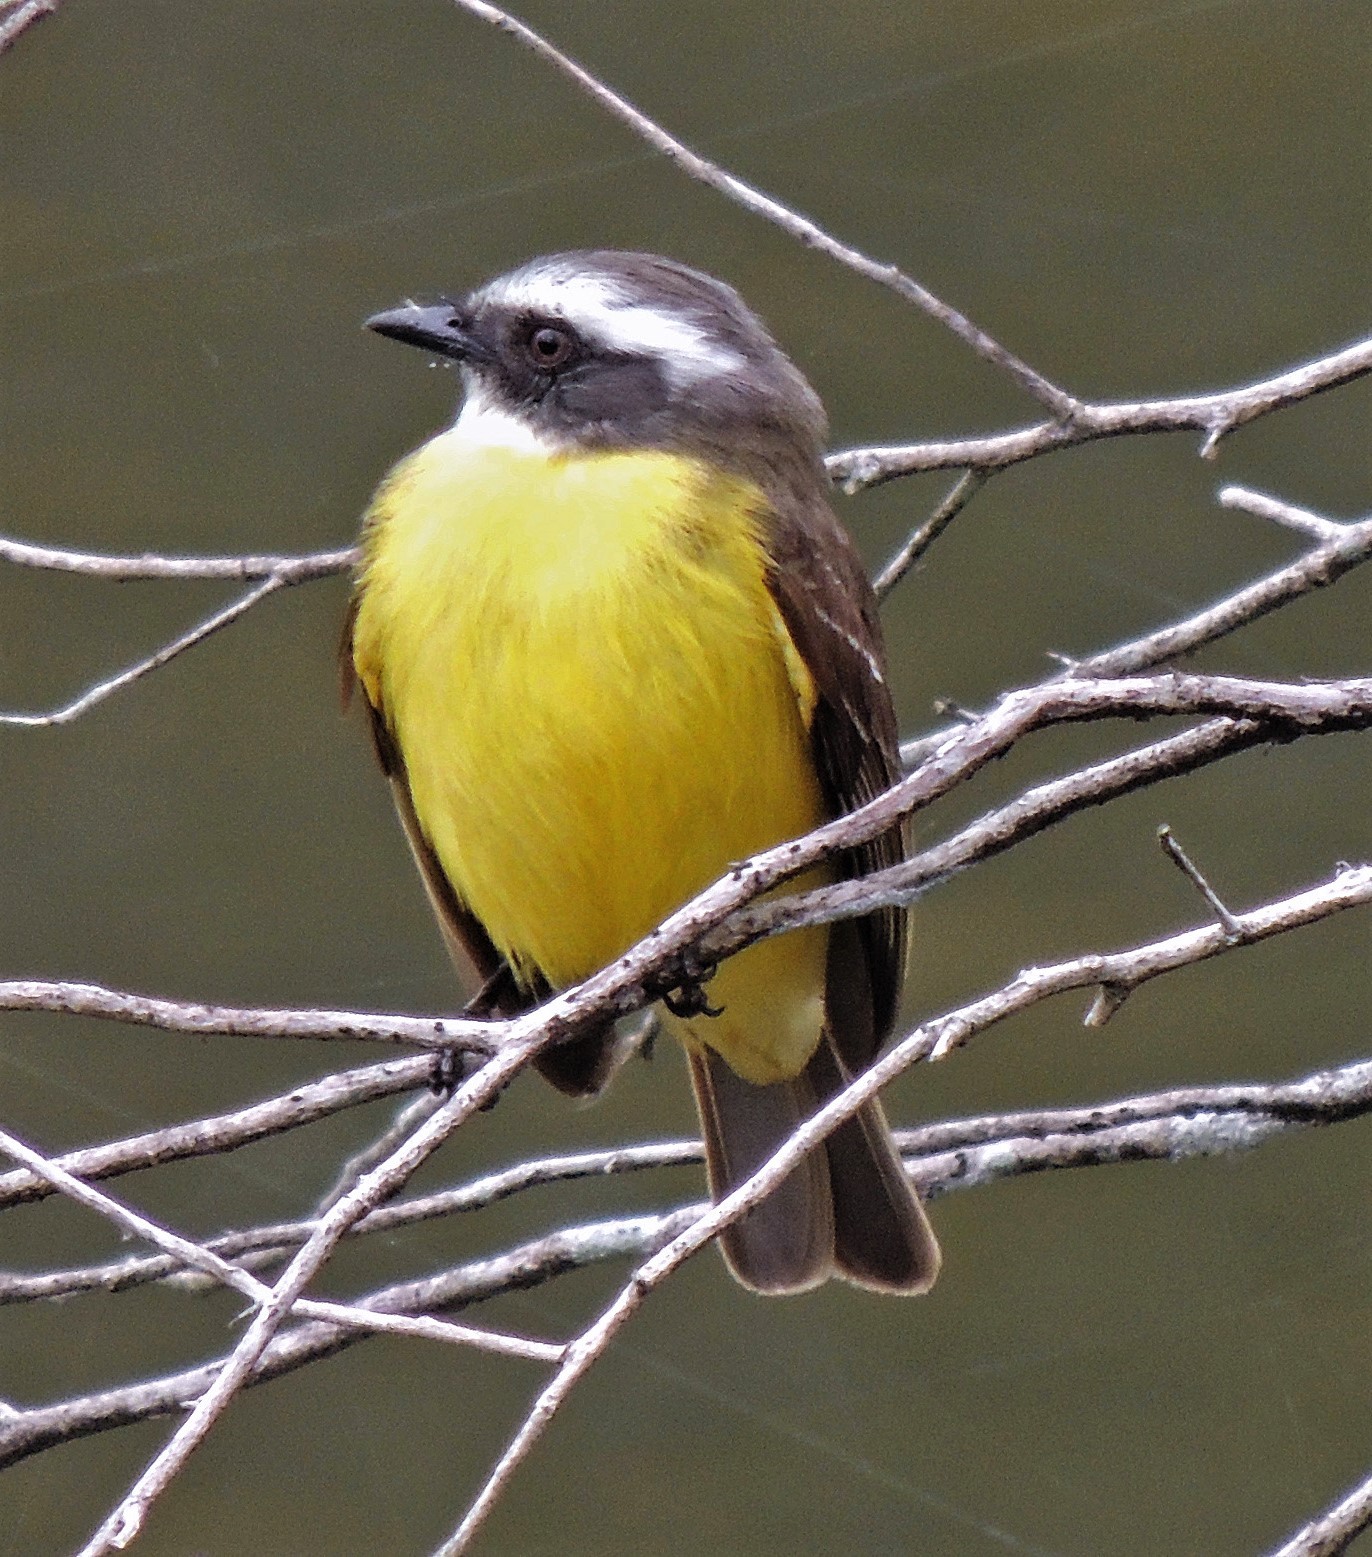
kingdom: Animalia
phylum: Chordata
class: Aves
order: Passeriformes
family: Tyrannidae
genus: Myiozetetes
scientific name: Myiozetetes similis
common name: Social flycatcher
